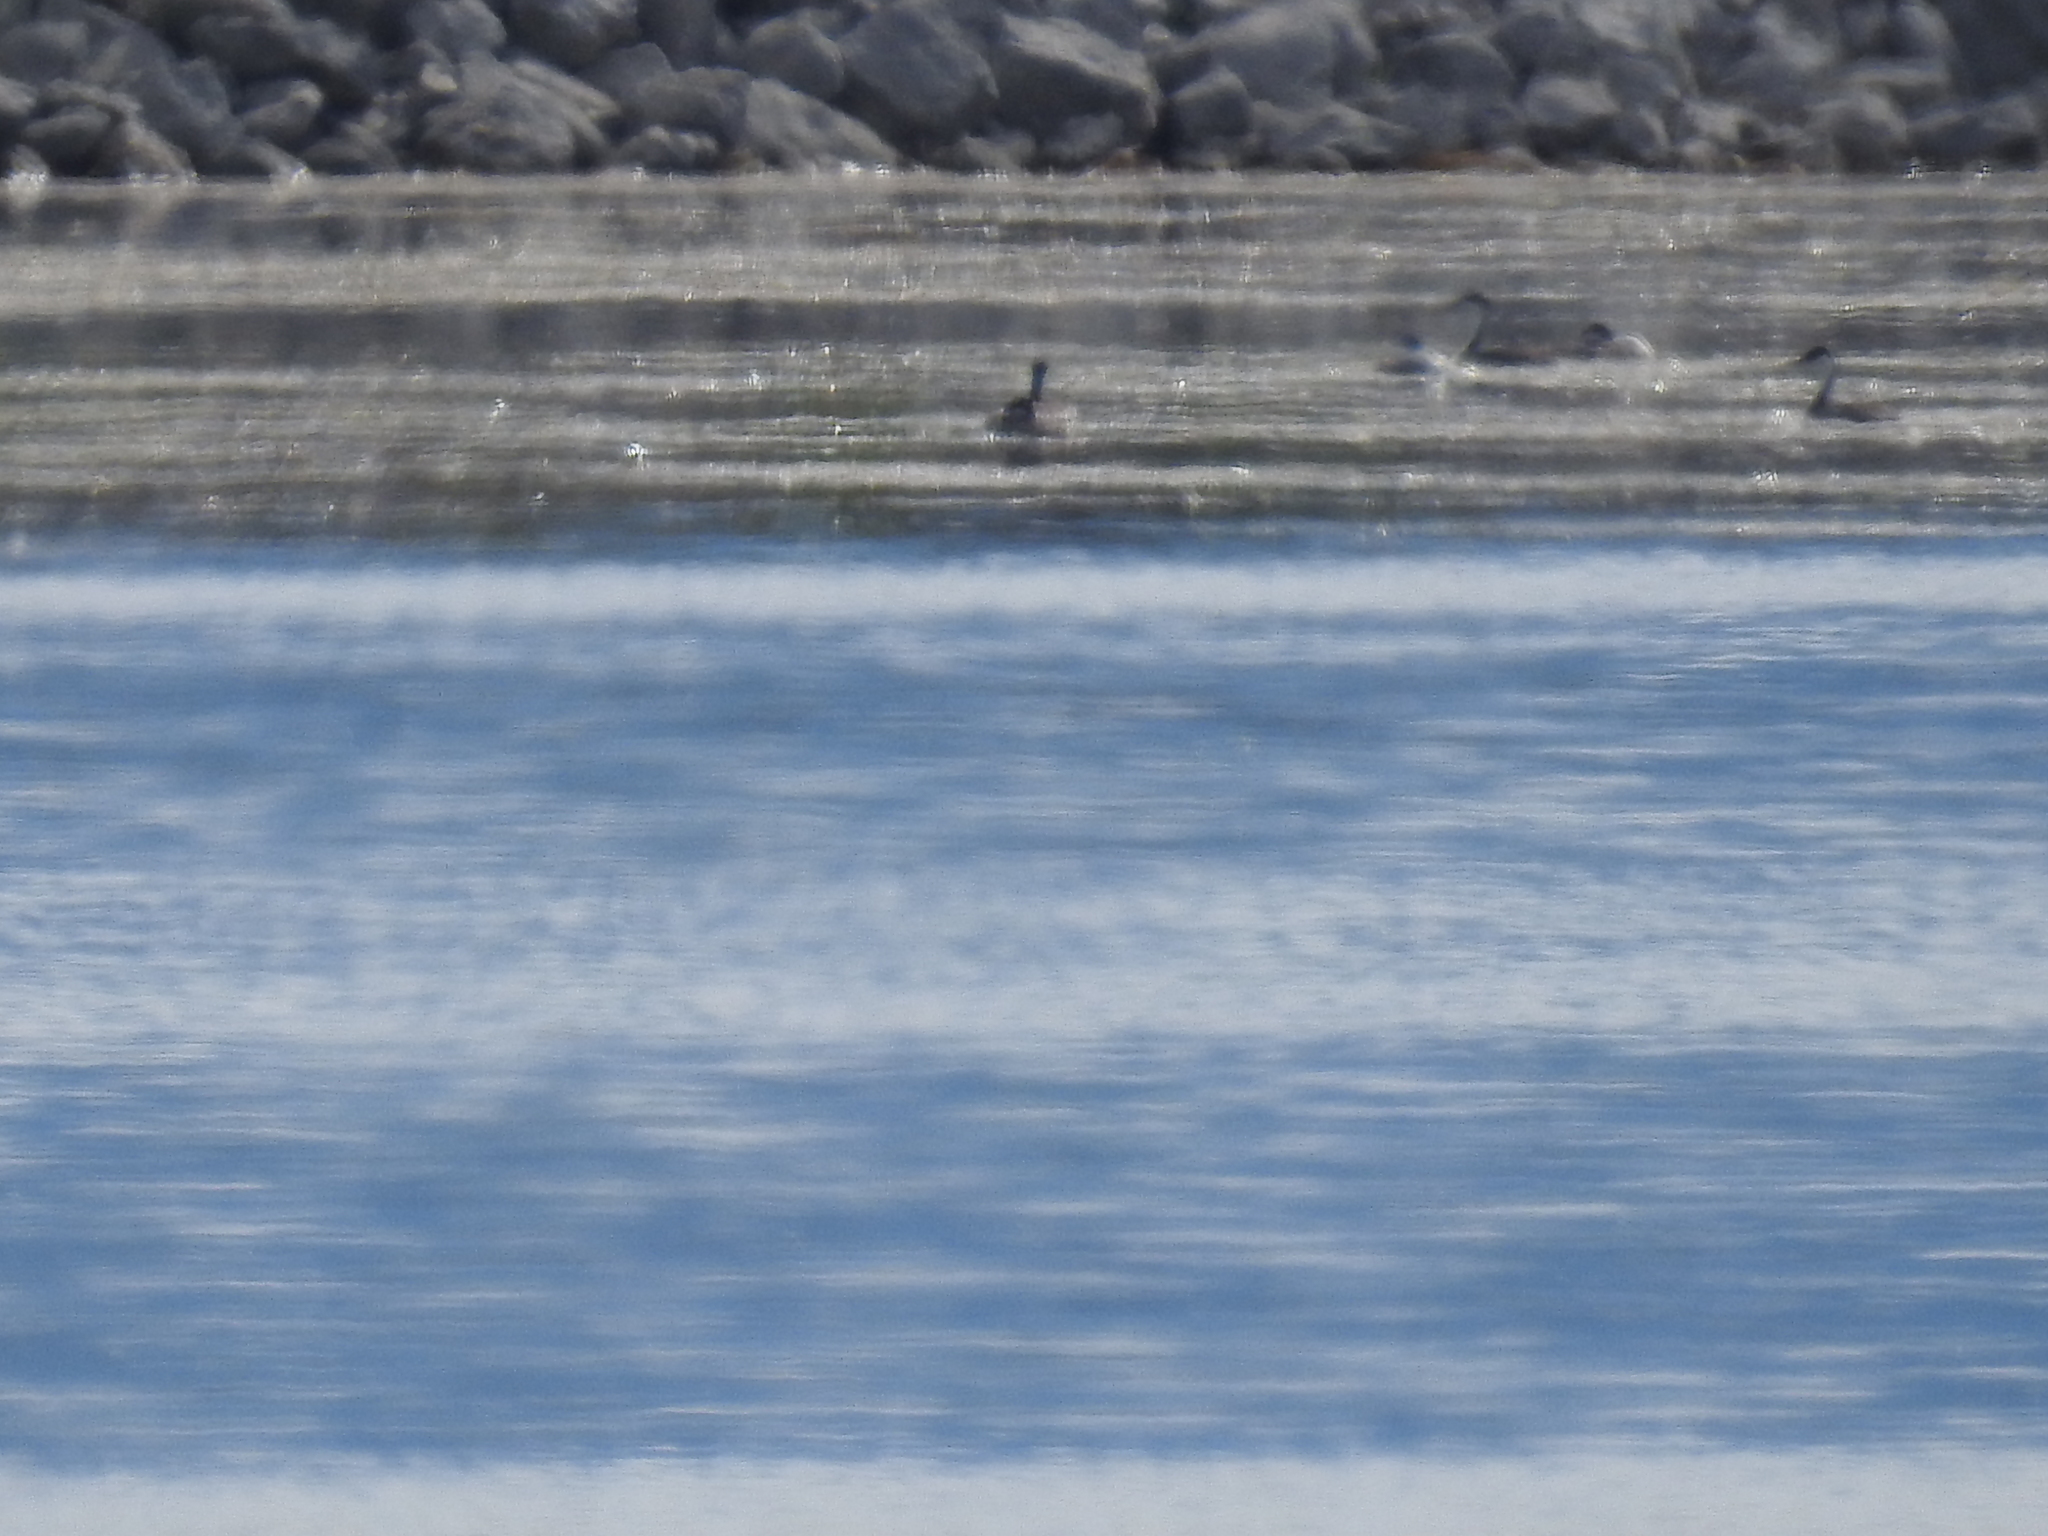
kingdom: Animalia
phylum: Chordata
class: Aves
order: Podicipediformes
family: Podicipedidae
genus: Aechmophorus
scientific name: Aechmophorus occidentalis
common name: Western grebe
